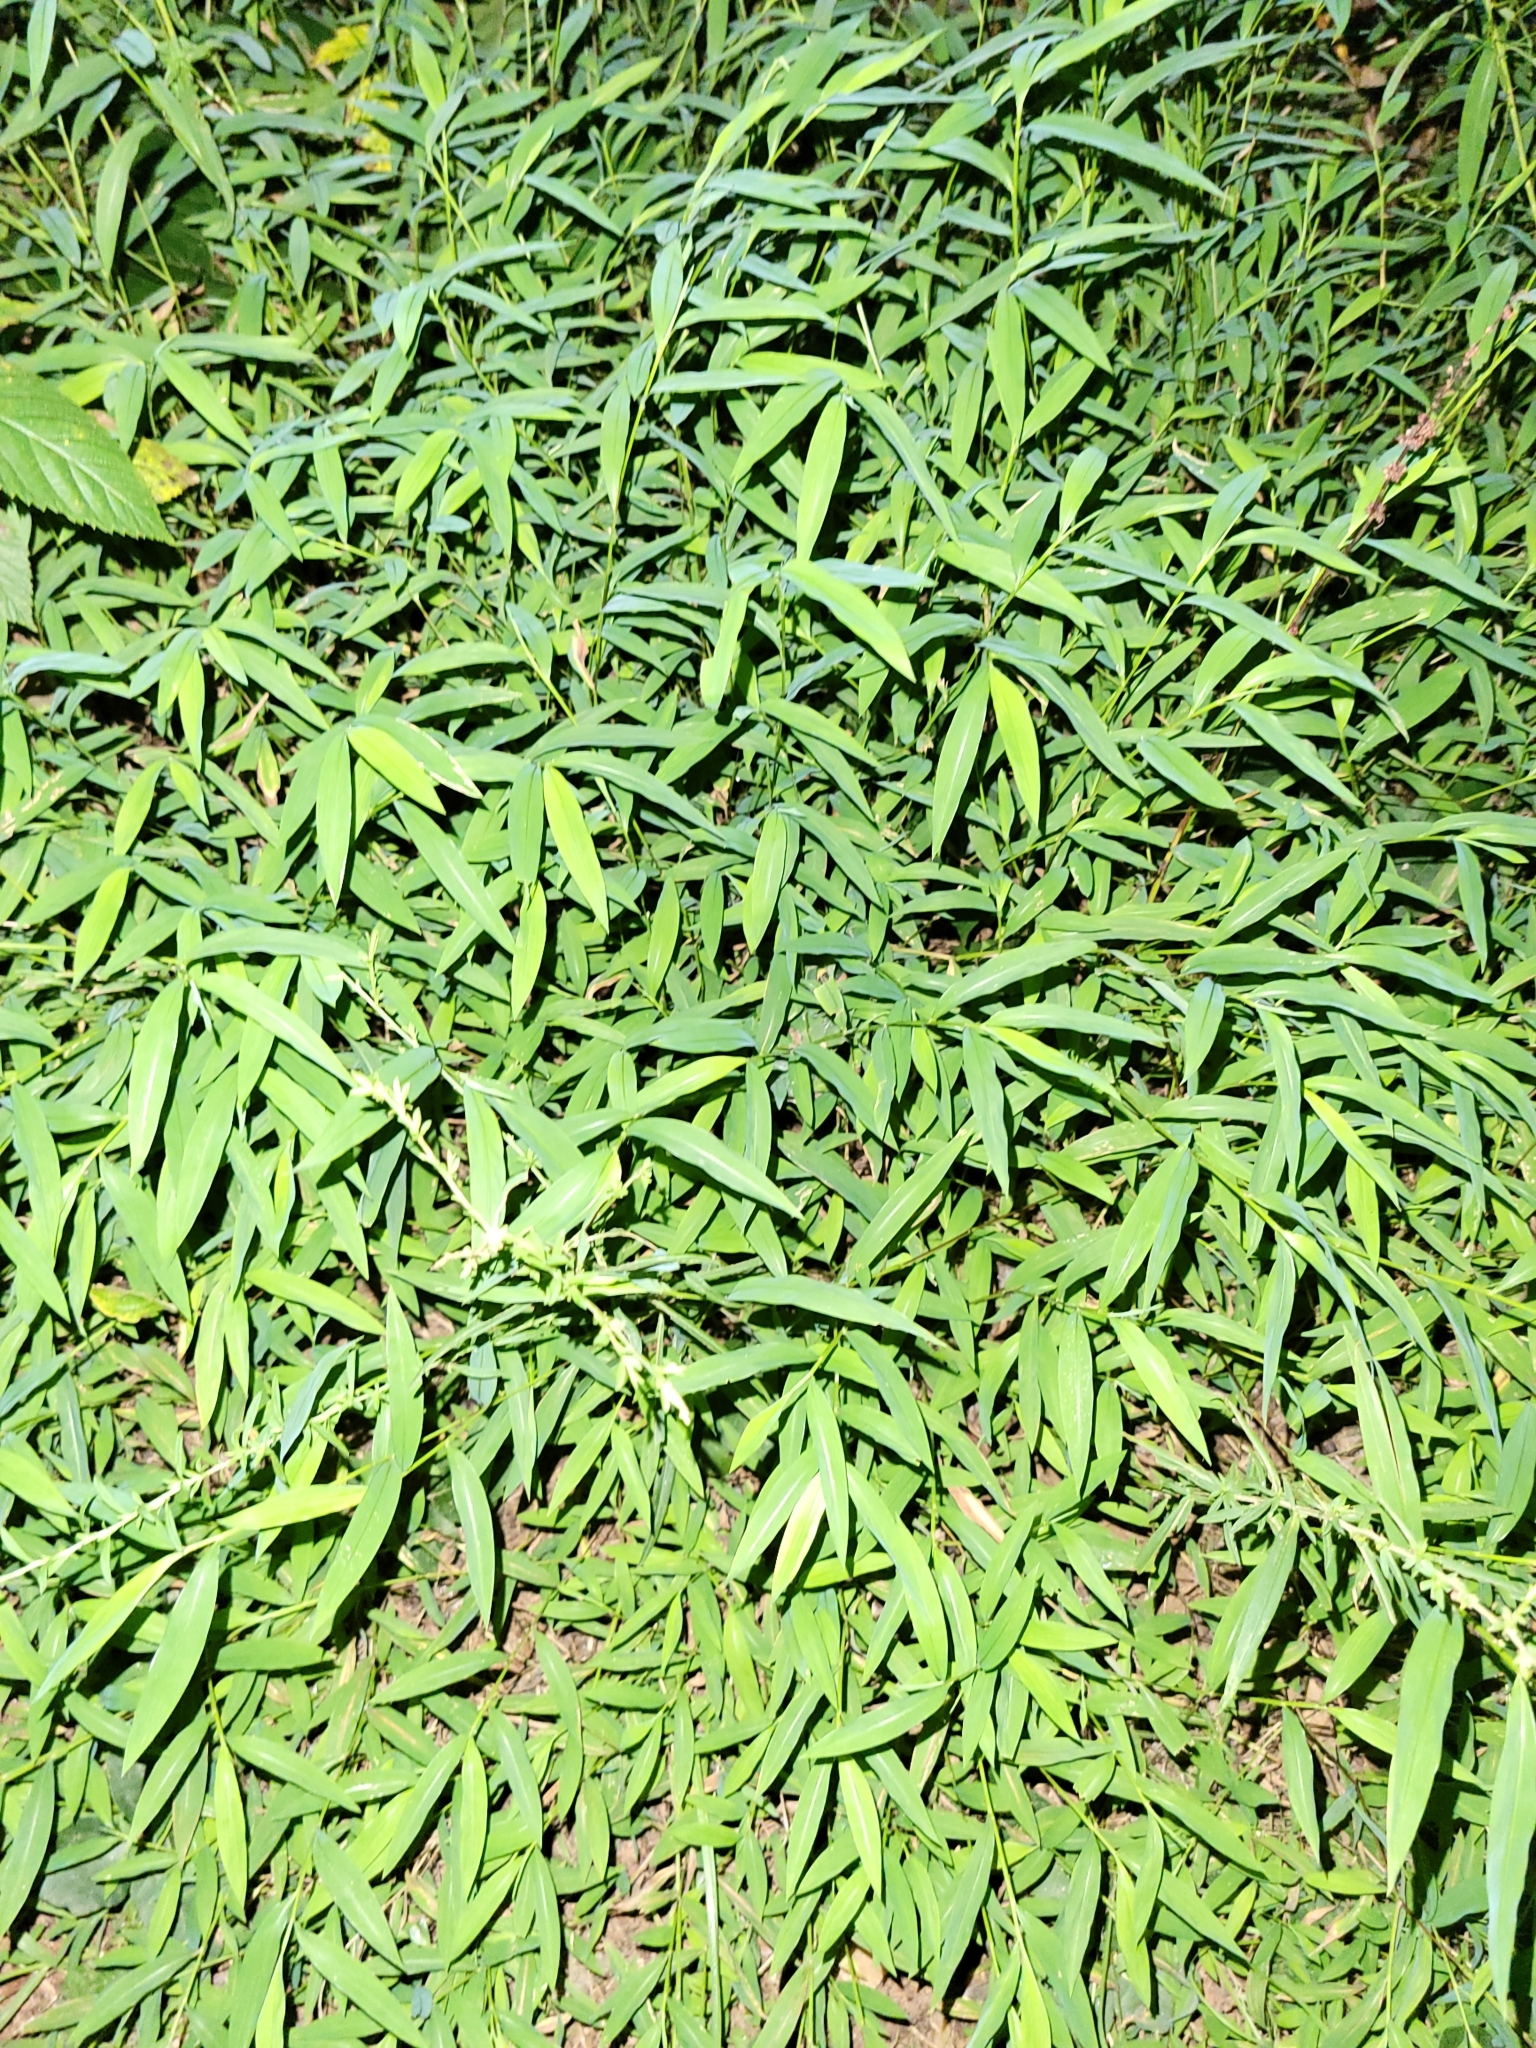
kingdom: Plantae
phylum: Tracheophyta
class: Liliopsida
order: Poales
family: Poaceae
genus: Microstegium
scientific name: Microstegium vimineum
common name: Japanese stiltgrass
